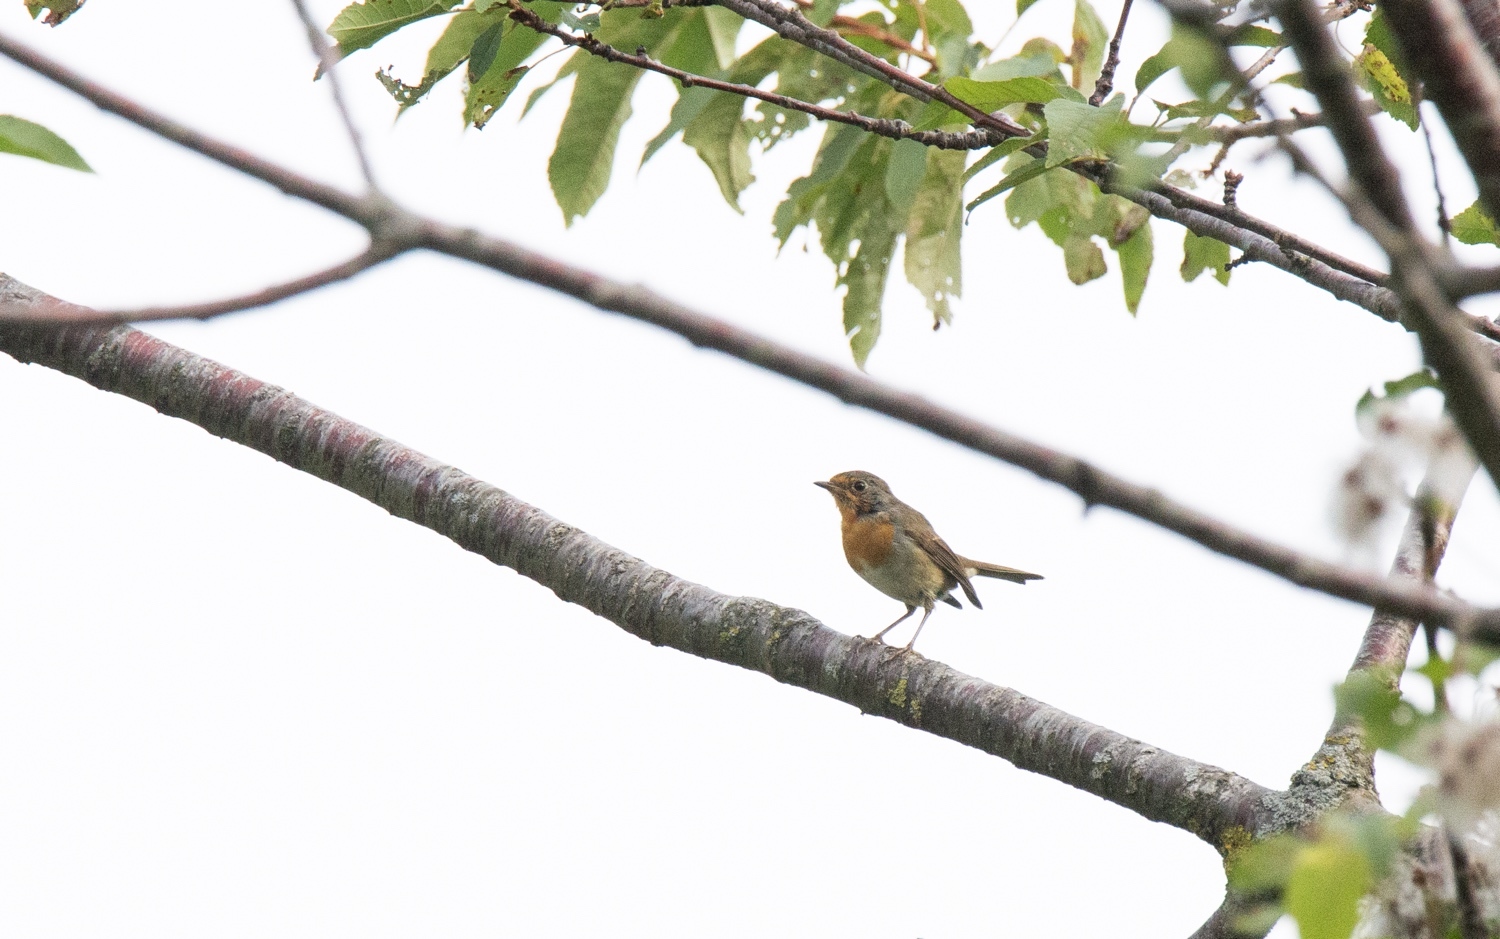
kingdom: Animalia
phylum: Chordata
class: Aves
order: Passeriformes
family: Muscicapidae
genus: Erithacus
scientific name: Erithacus rubecula
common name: European robin
